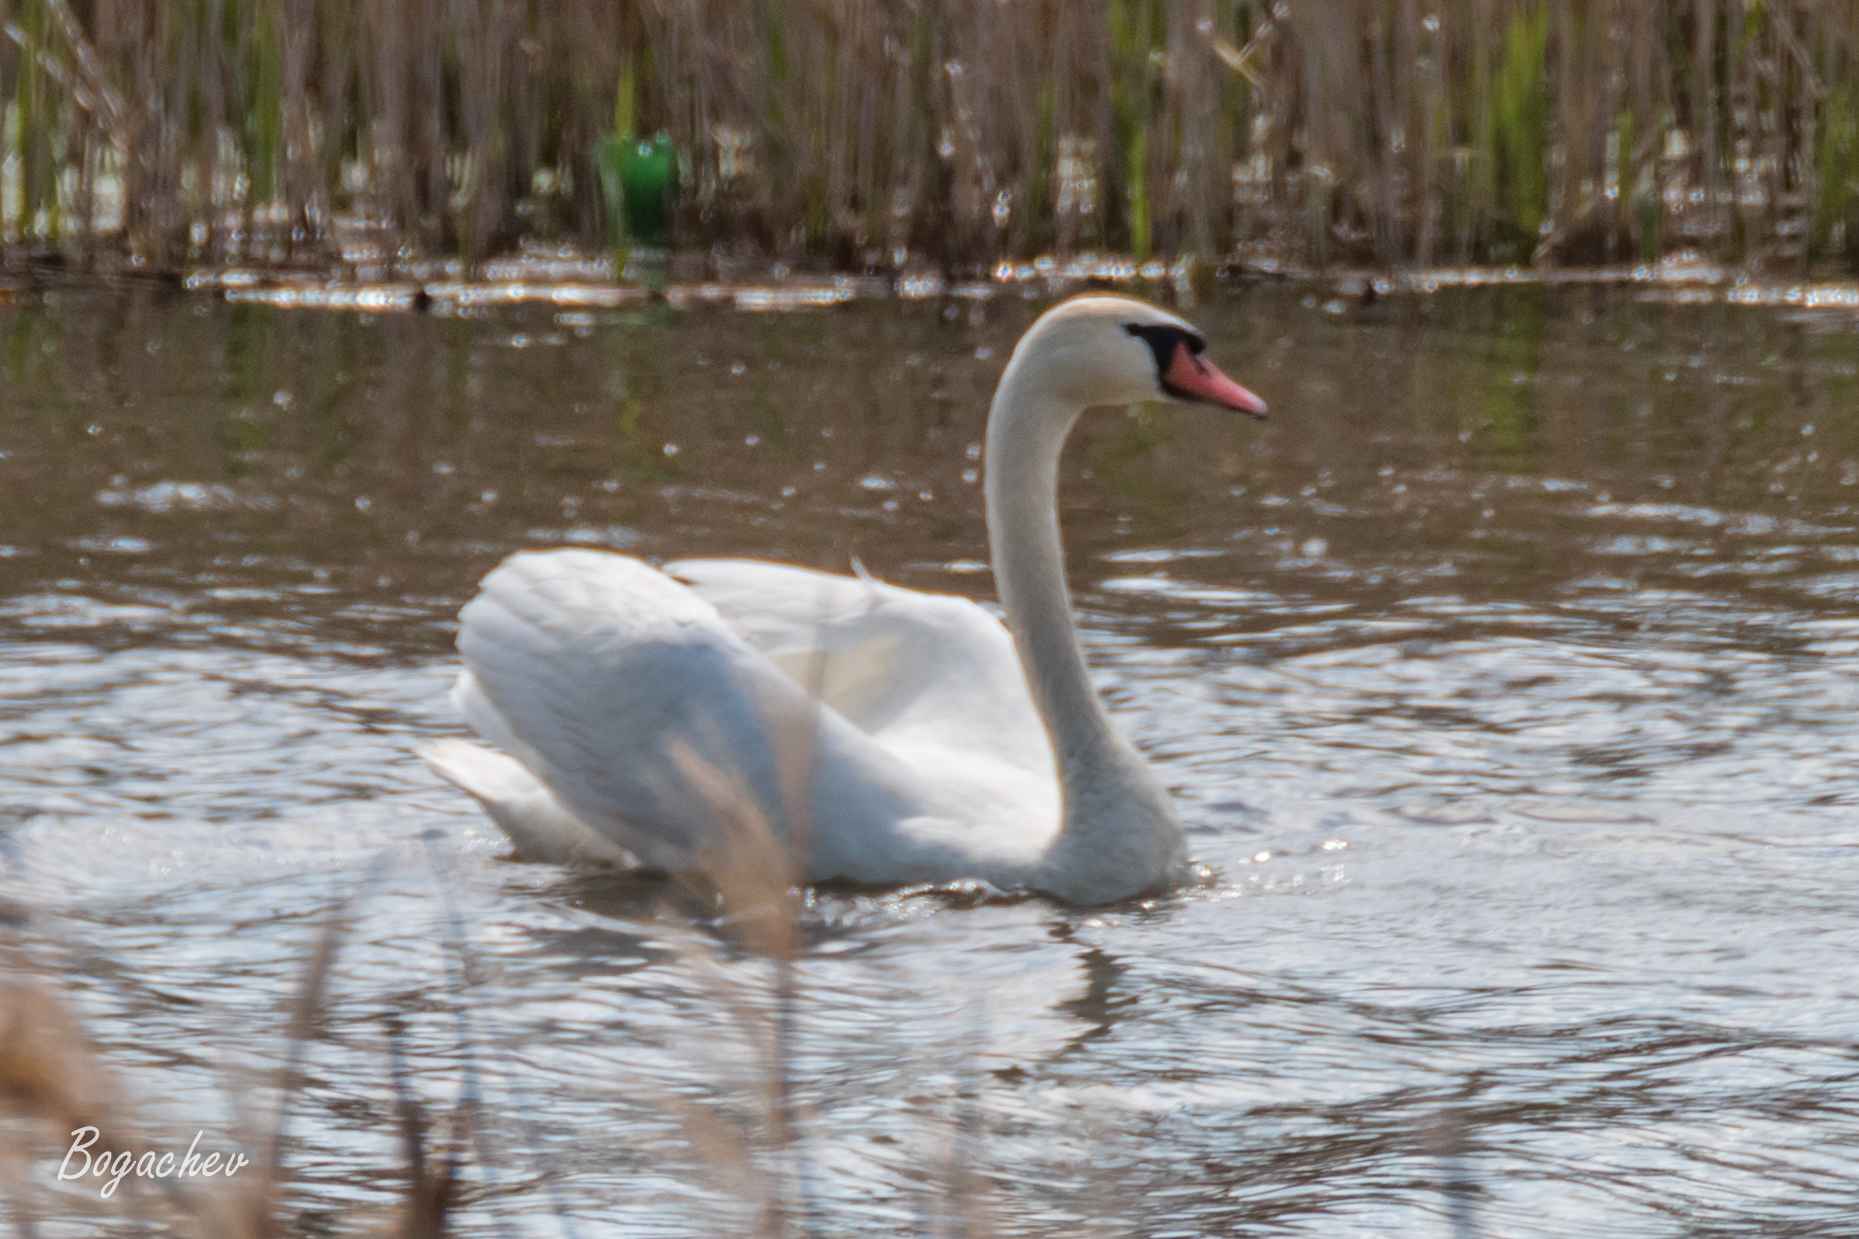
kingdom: Animalia
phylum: Chordata
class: Aves
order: Anseriformes
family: Anatidae
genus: Cygnus
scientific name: Cygnus olor
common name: Mute swan
